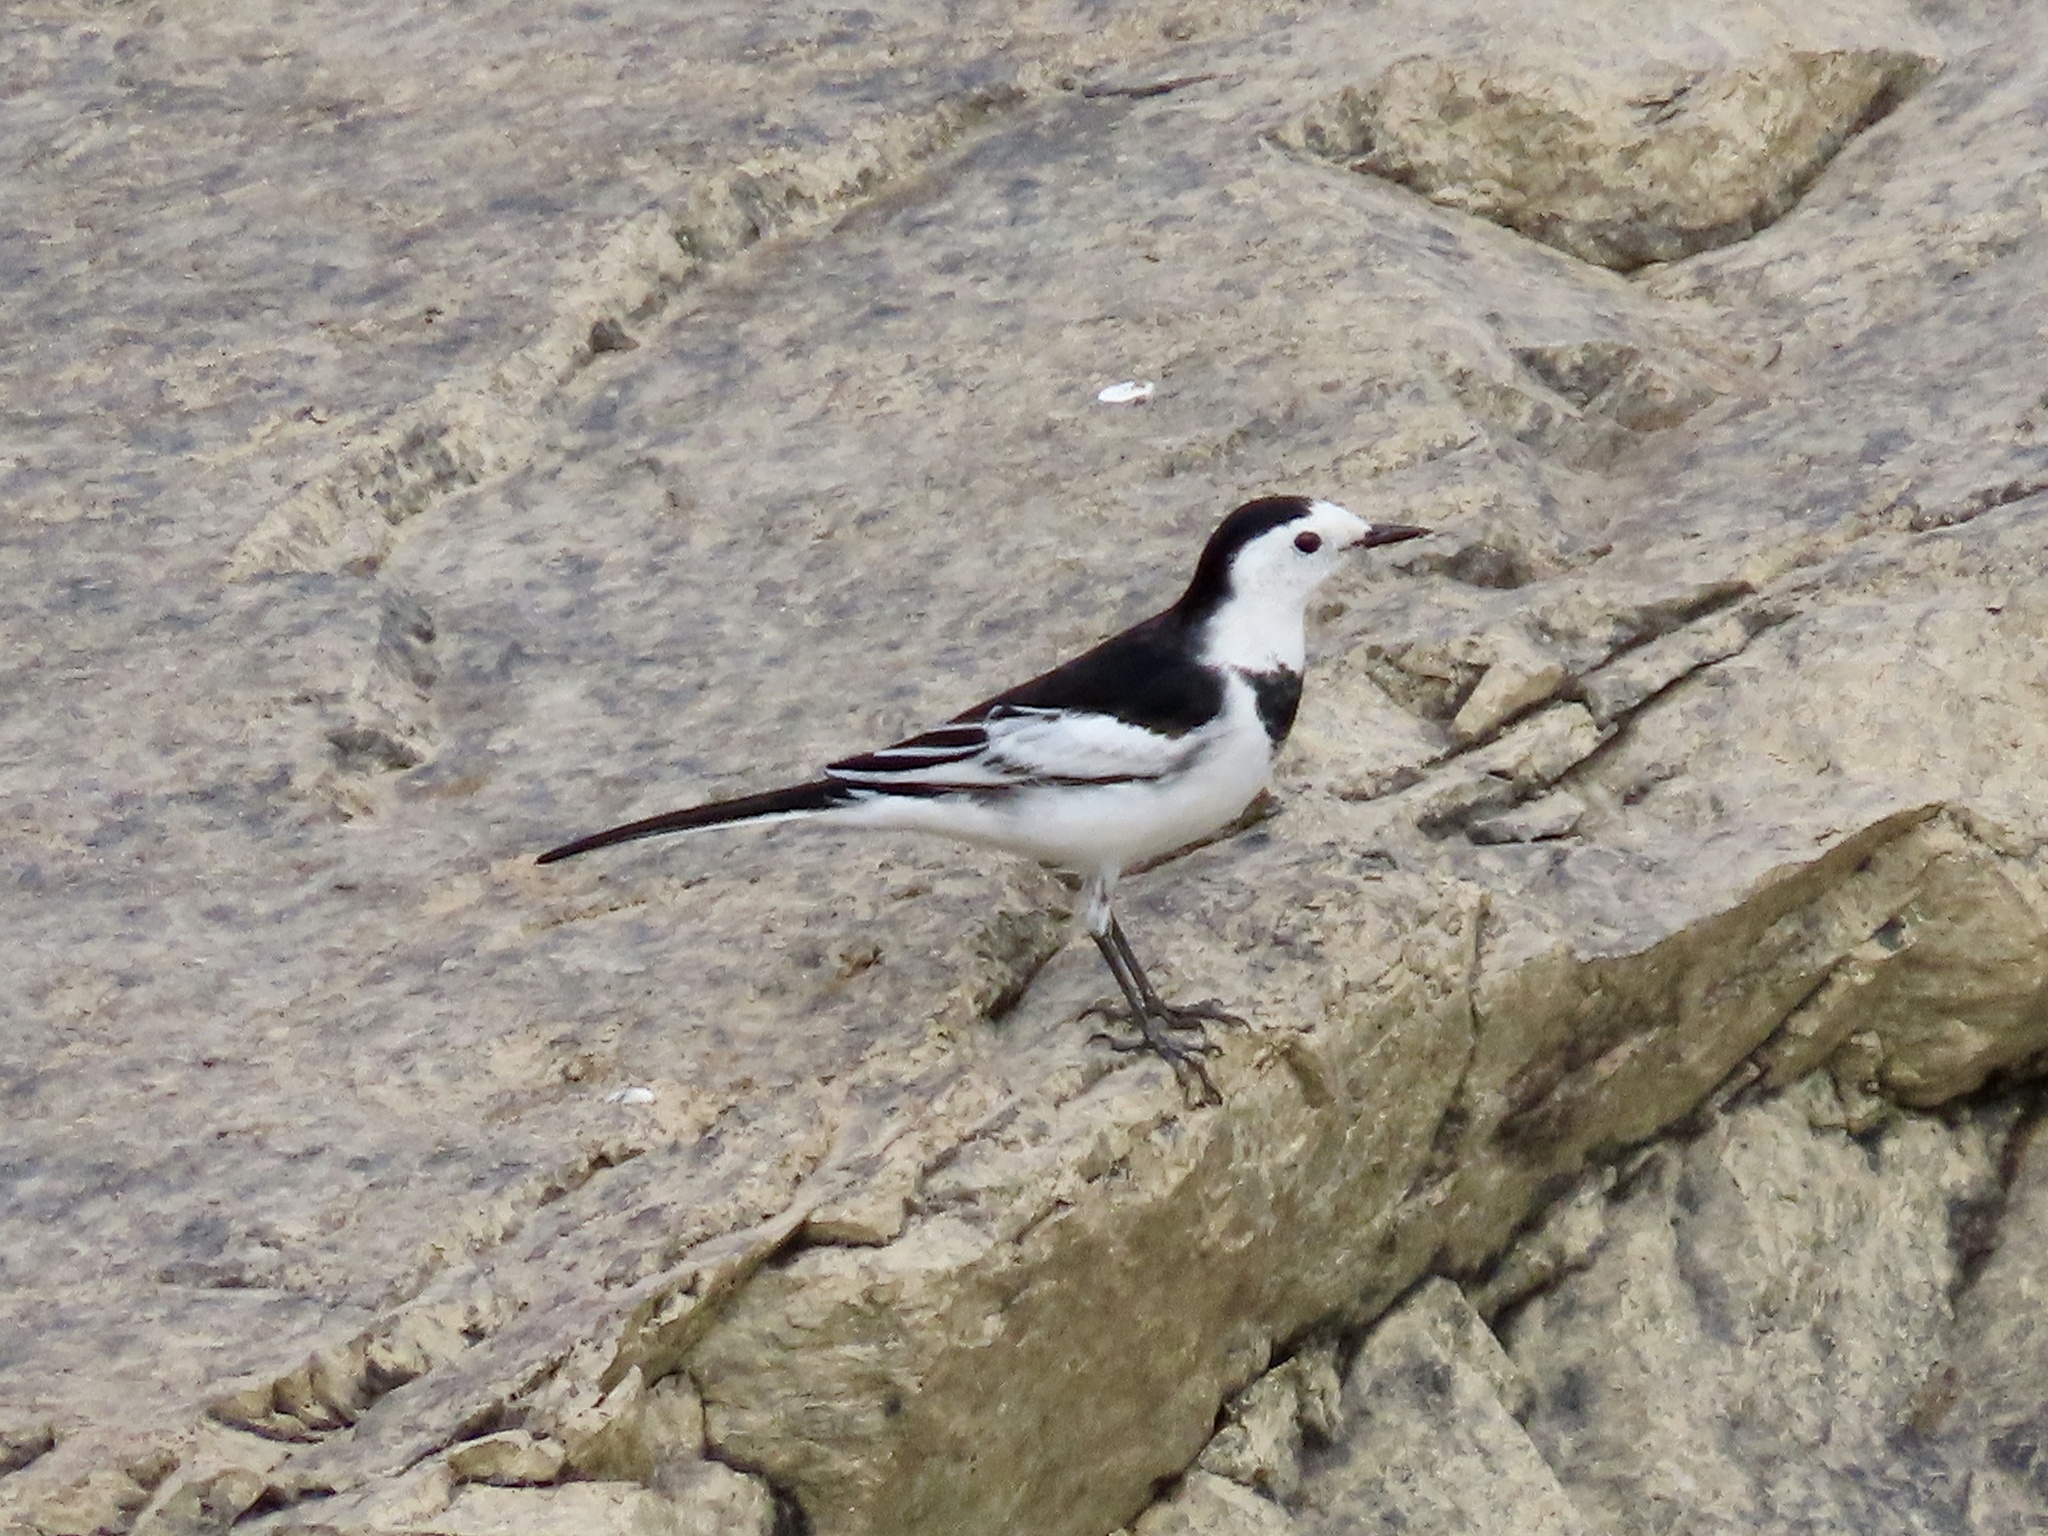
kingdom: Animalia
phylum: Chordata
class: Aves
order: Passeriformes
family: Motacillidae
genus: Motacilla
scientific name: Motacilla alba
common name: White wagtail
